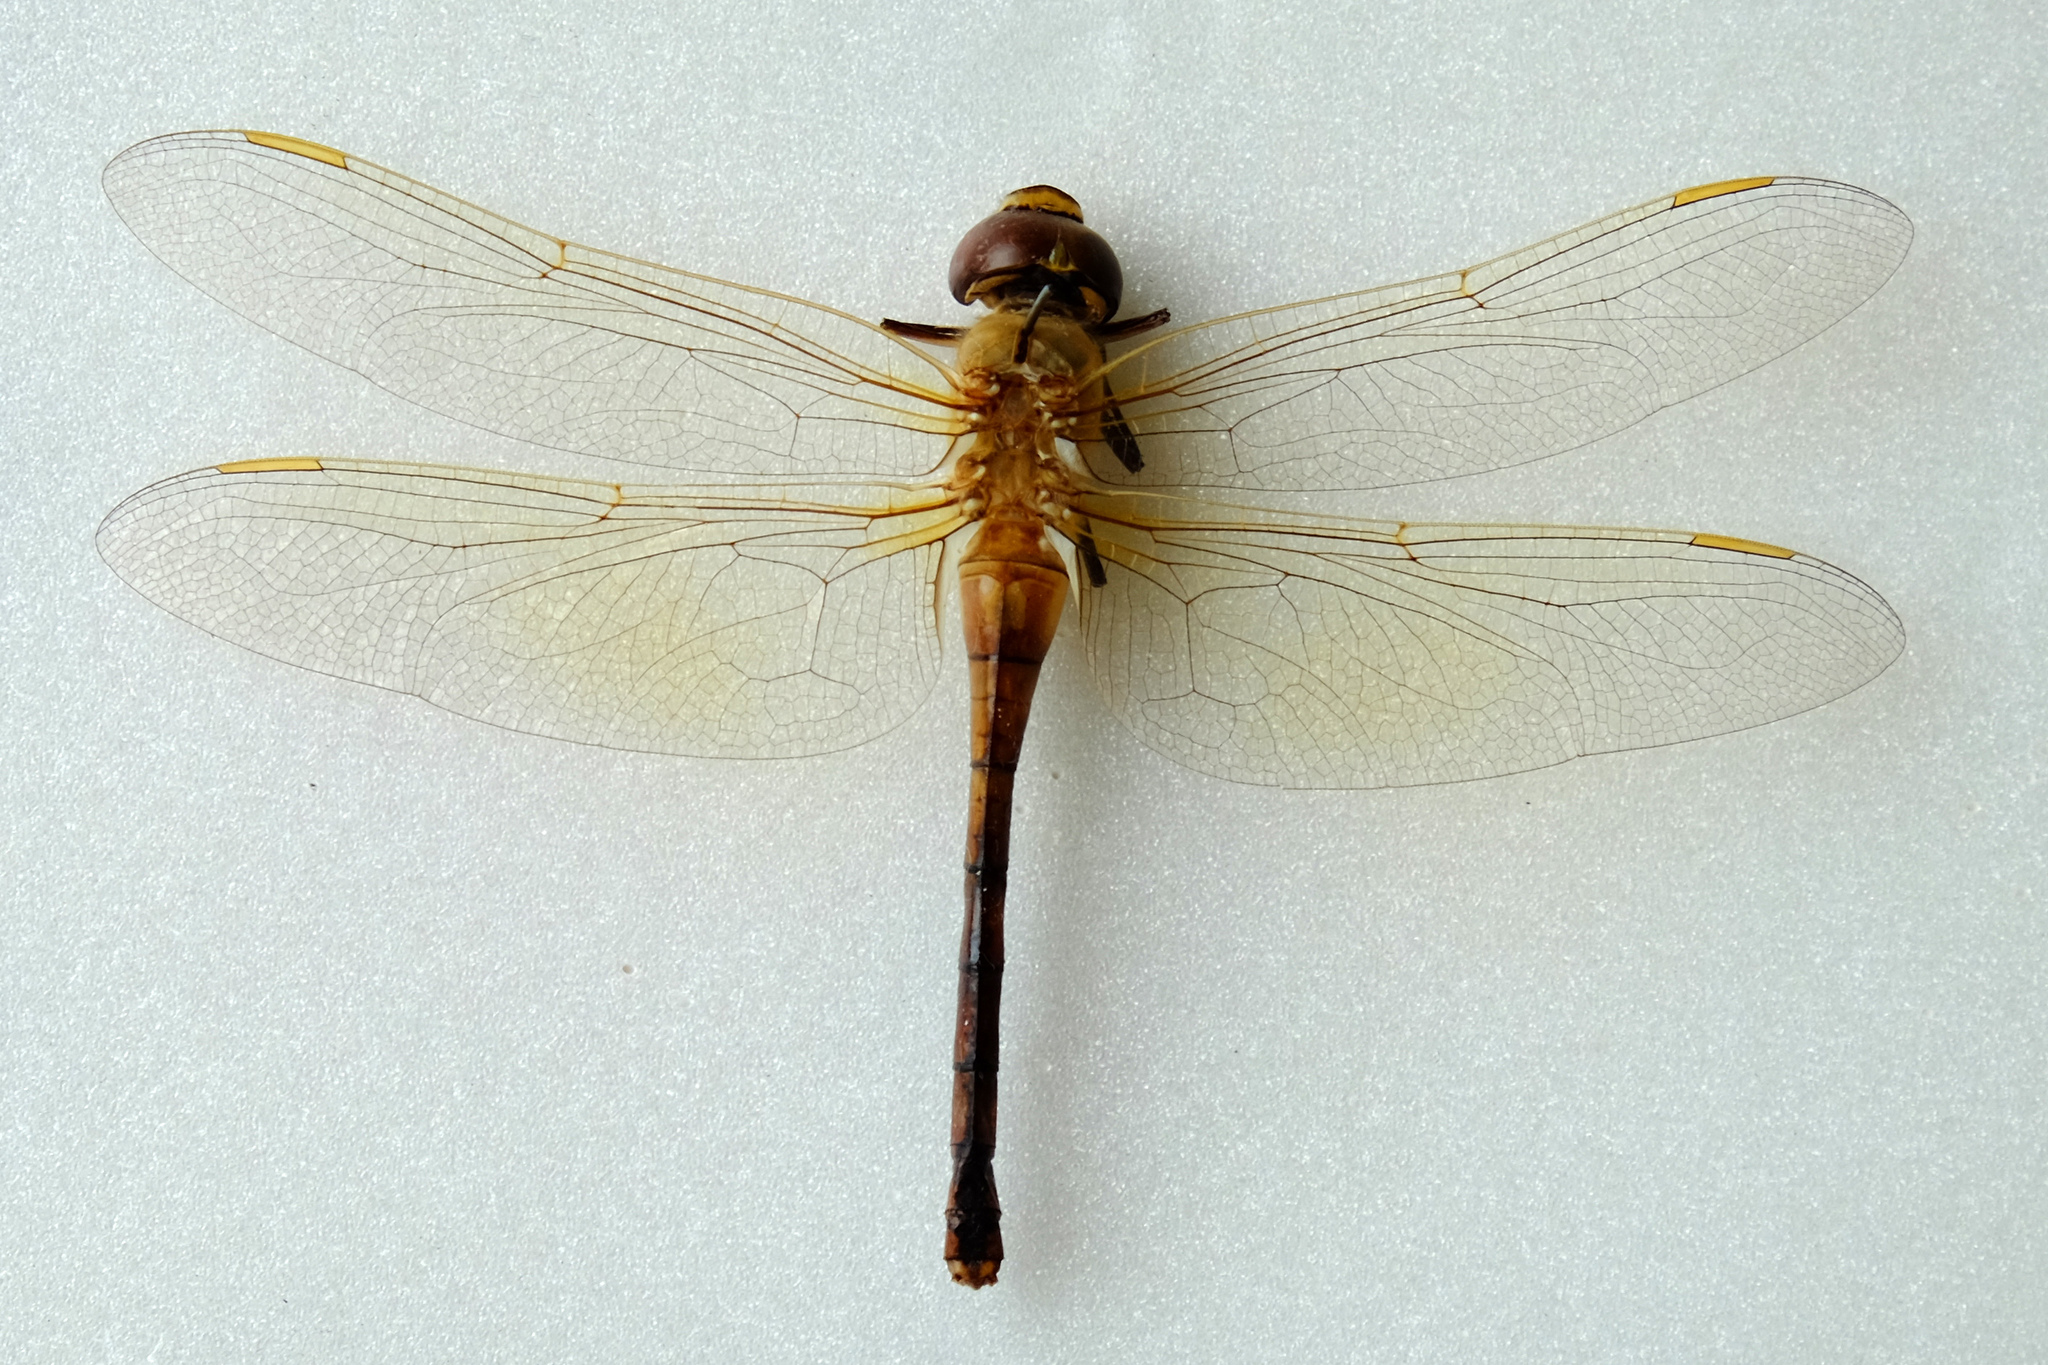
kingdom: Animalia
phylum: Arthropoda
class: Insecta
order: Odonata
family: Aeshnidae
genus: Anax
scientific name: Anax ephippiger
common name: Vagrant emperor
